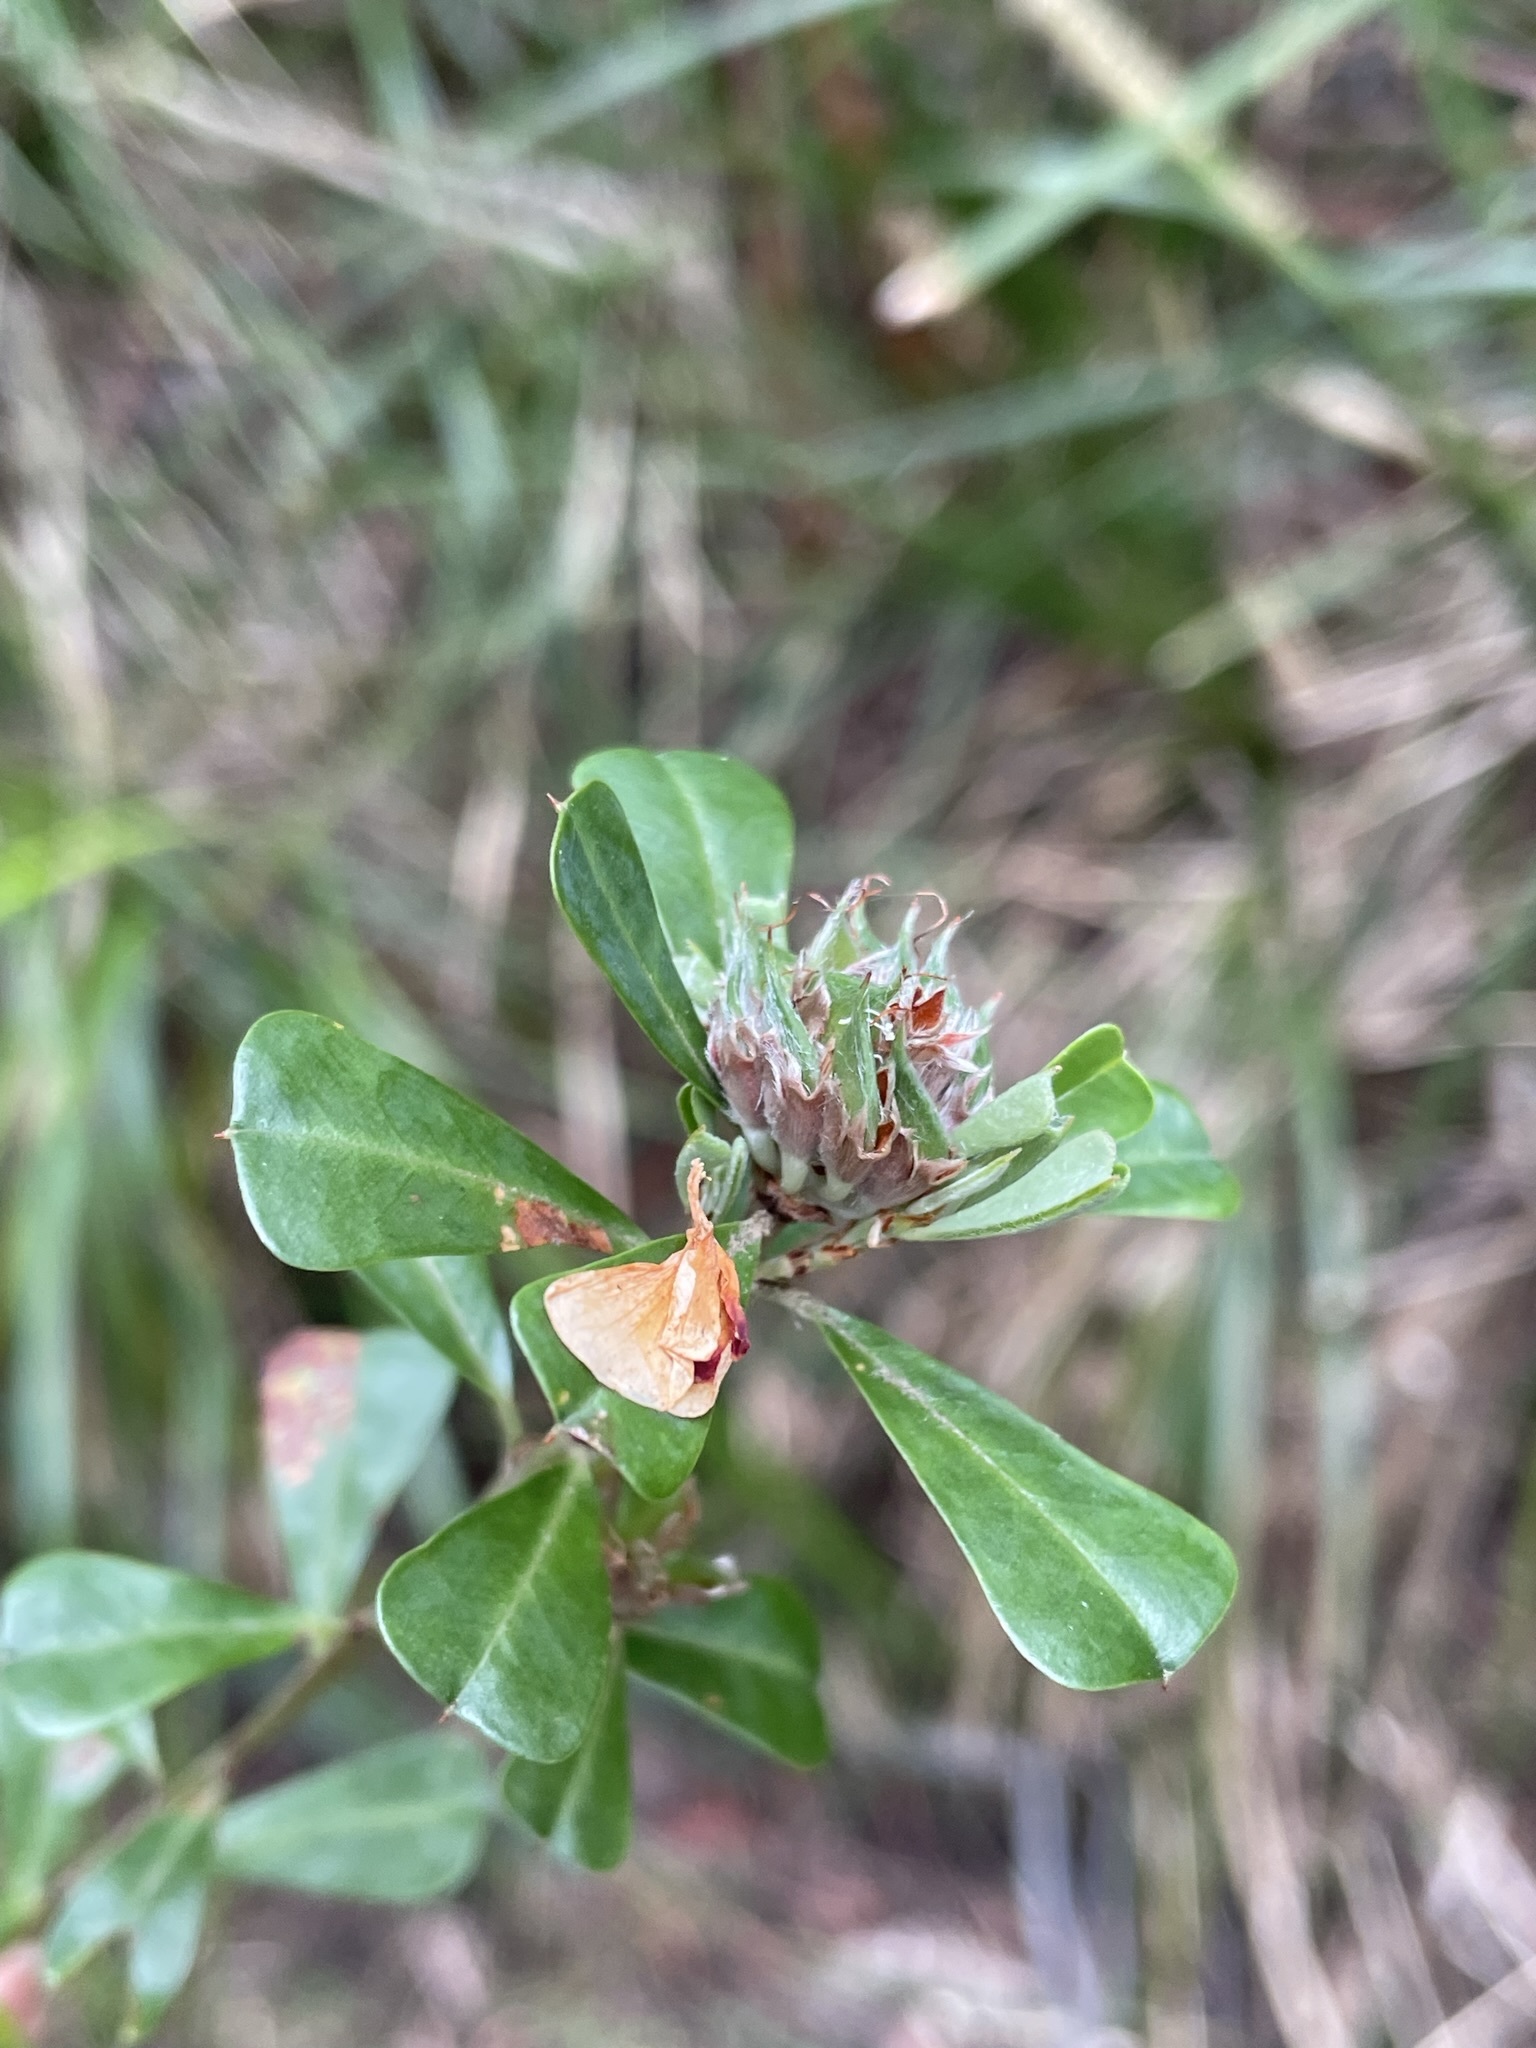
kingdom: Plantae
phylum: Tracheophyta
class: Magnoliopsida
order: Fabales
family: Fabaceae
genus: Pultenaea
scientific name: Pultenaea daphnoides
